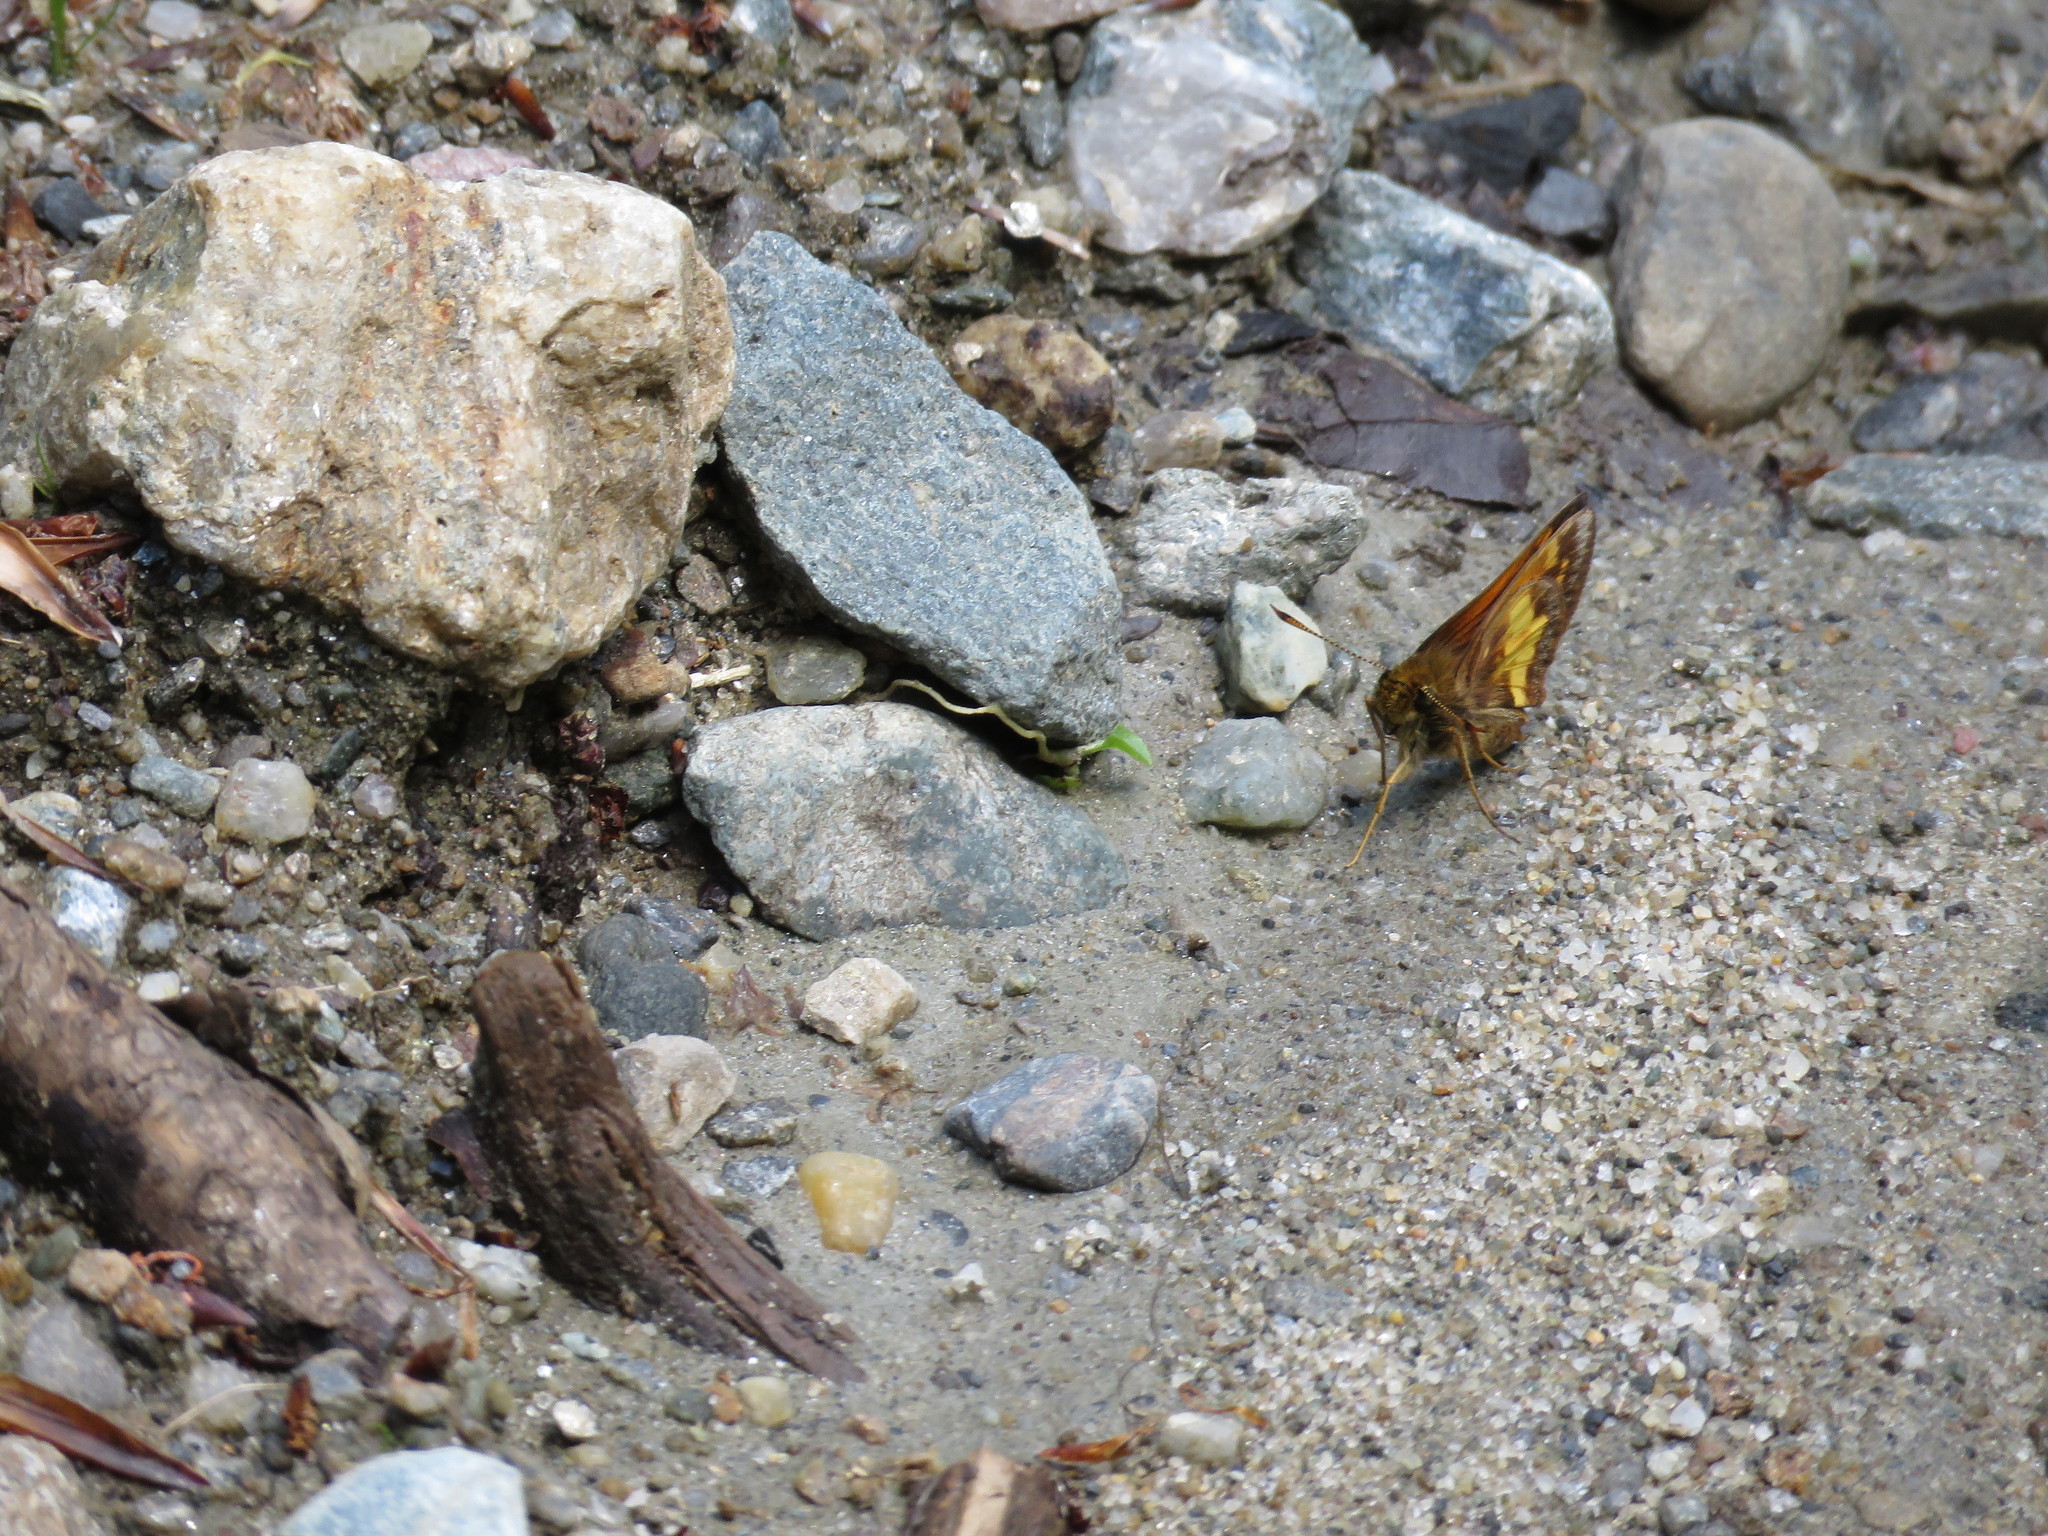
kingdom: Animalia
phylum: Arthropoda
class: Insecta
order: Lepidoptera
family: Hesperiidae
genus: Lon
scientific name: Lon hobomok
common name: Hobomok skipper
